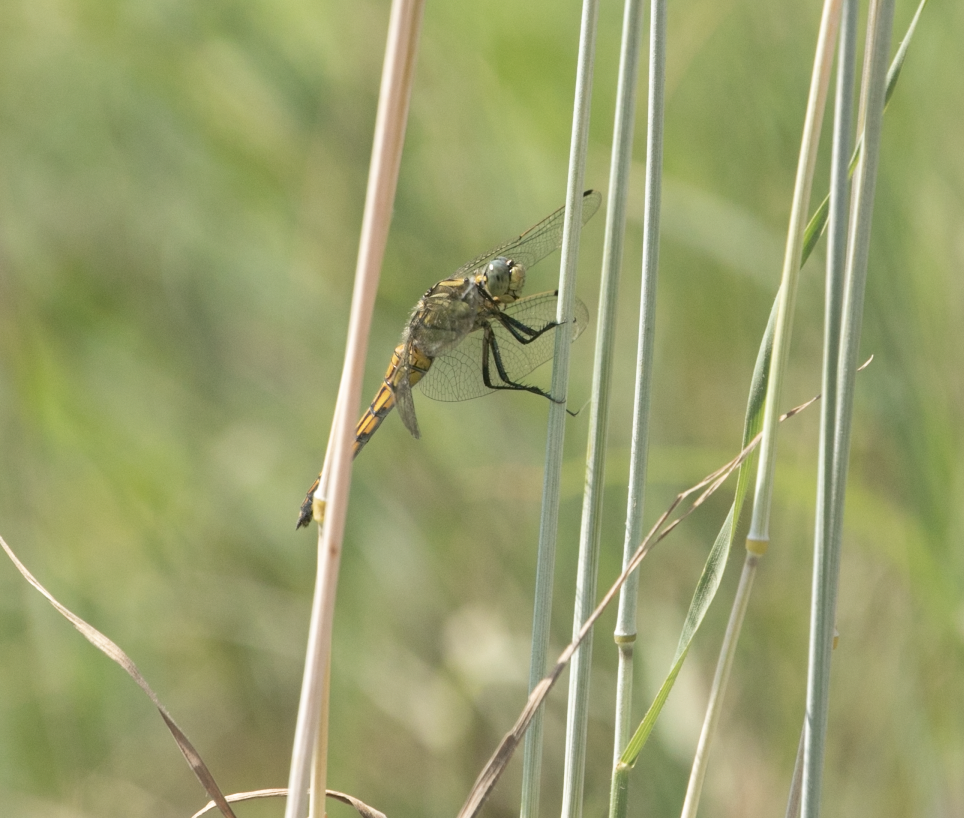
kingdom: Animalia
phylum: Arthropoda
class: Insecta
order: Odonata
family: Libellulidae
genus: Orthetrum
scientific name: Orthetrum cancellatum
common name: Black-tailed skimmer
